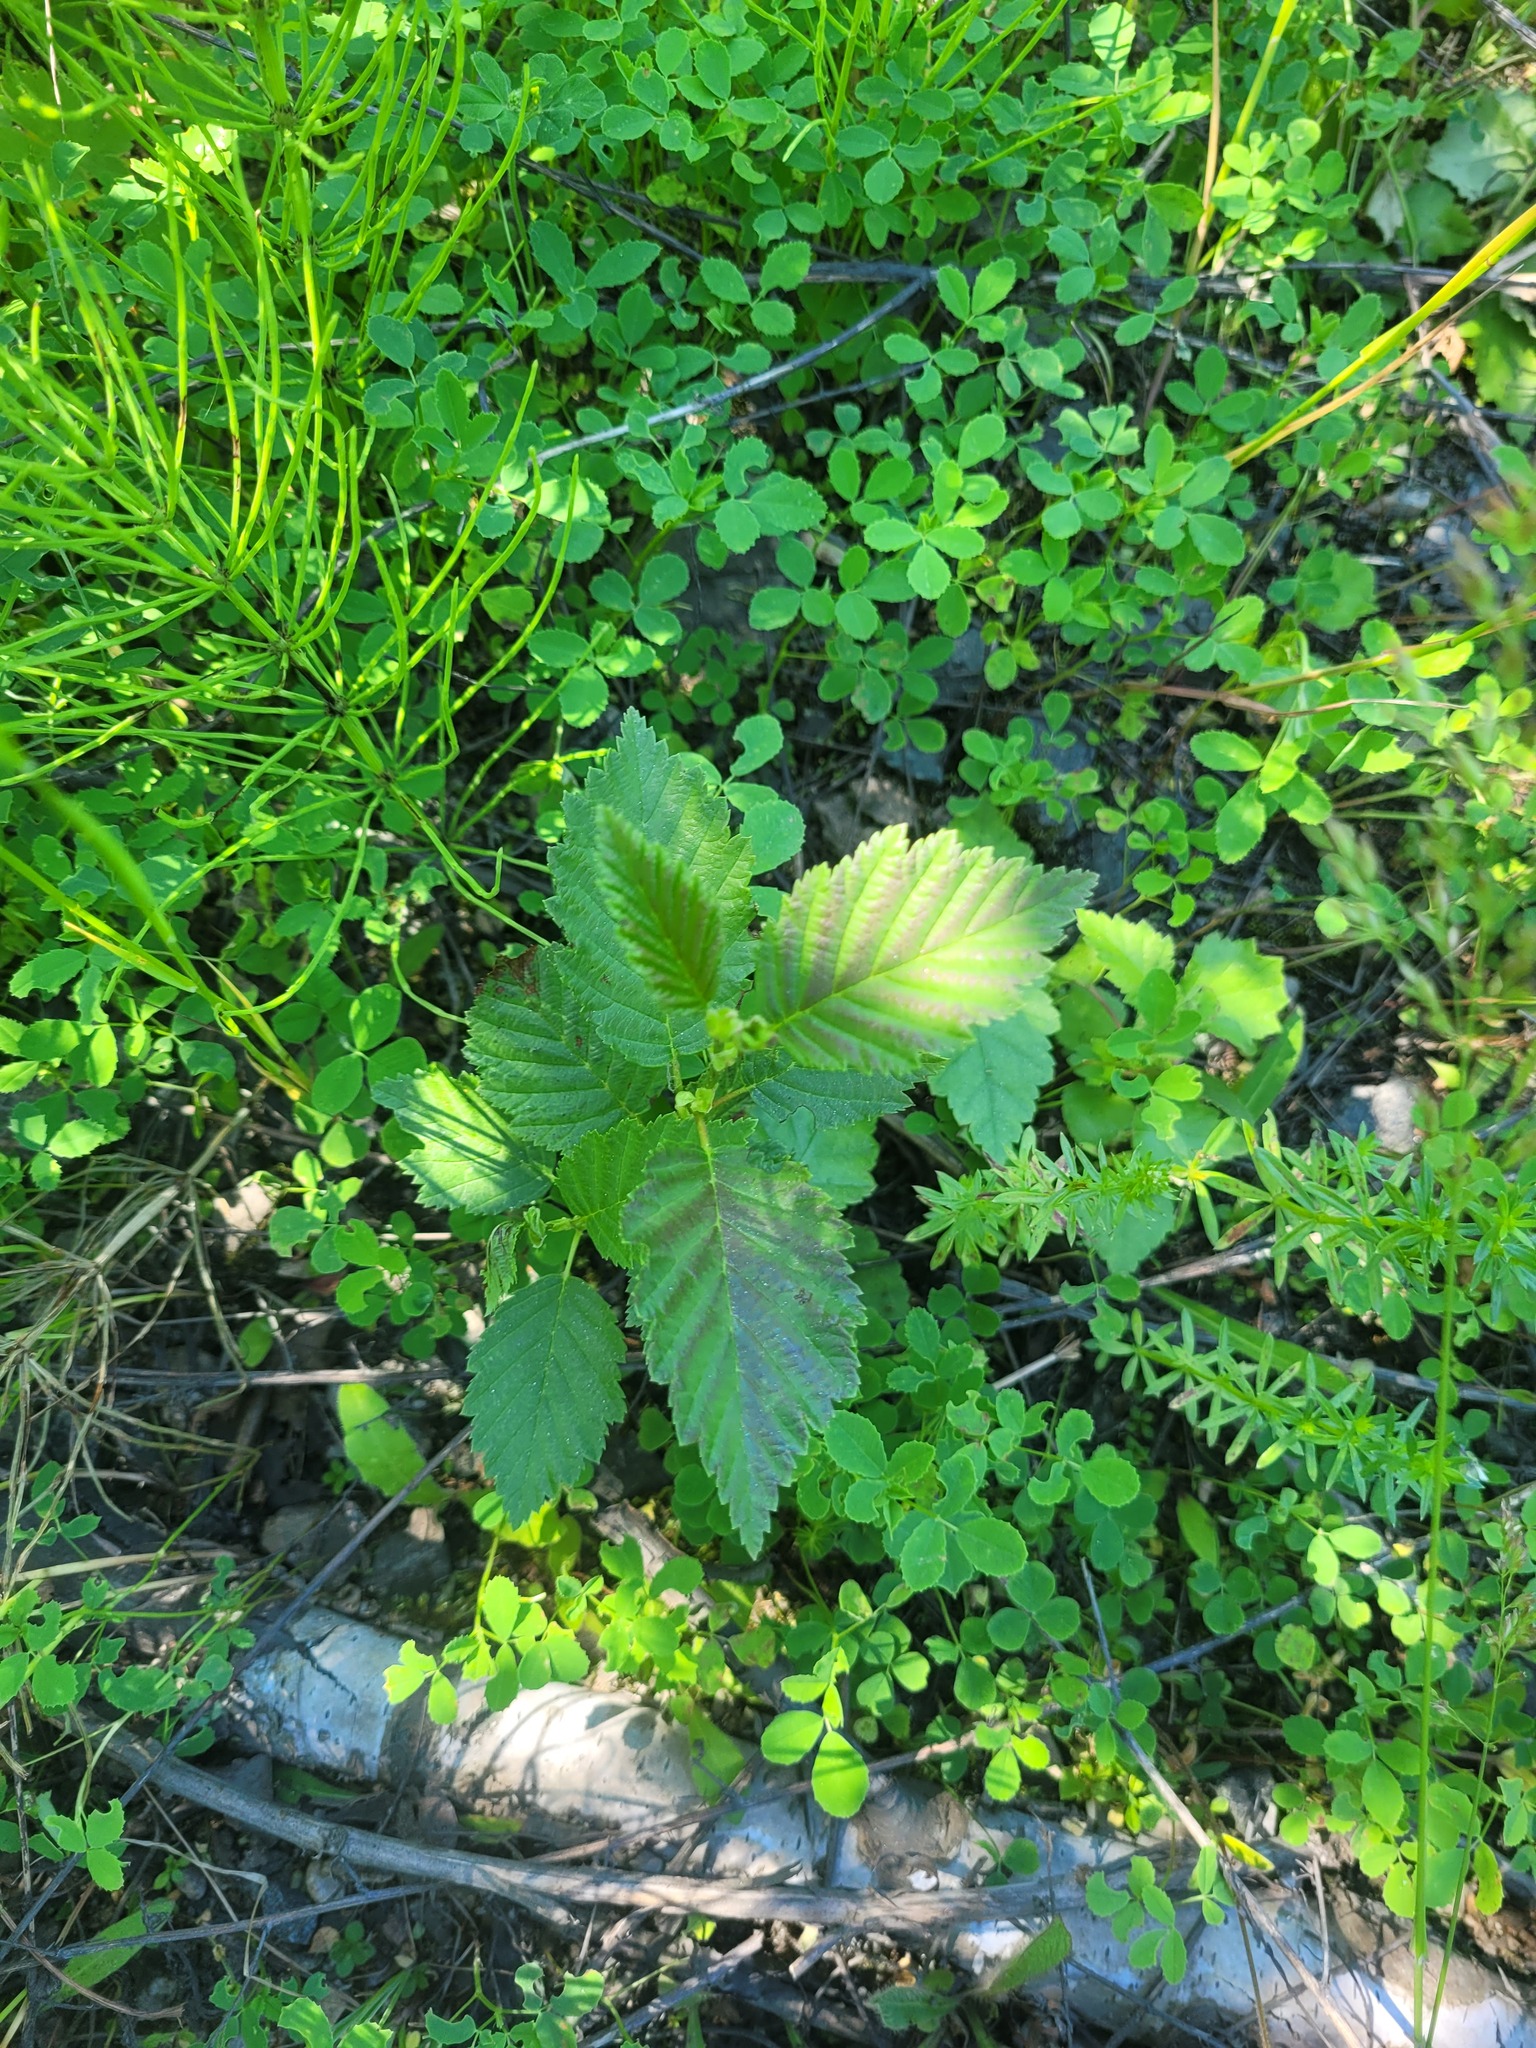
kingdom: Plantae
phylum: Tracheophyta
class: Magnoliopsida
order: Fagales
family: Betulaceae
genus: Alnus
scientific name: Alnus incana
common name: Grey alder
